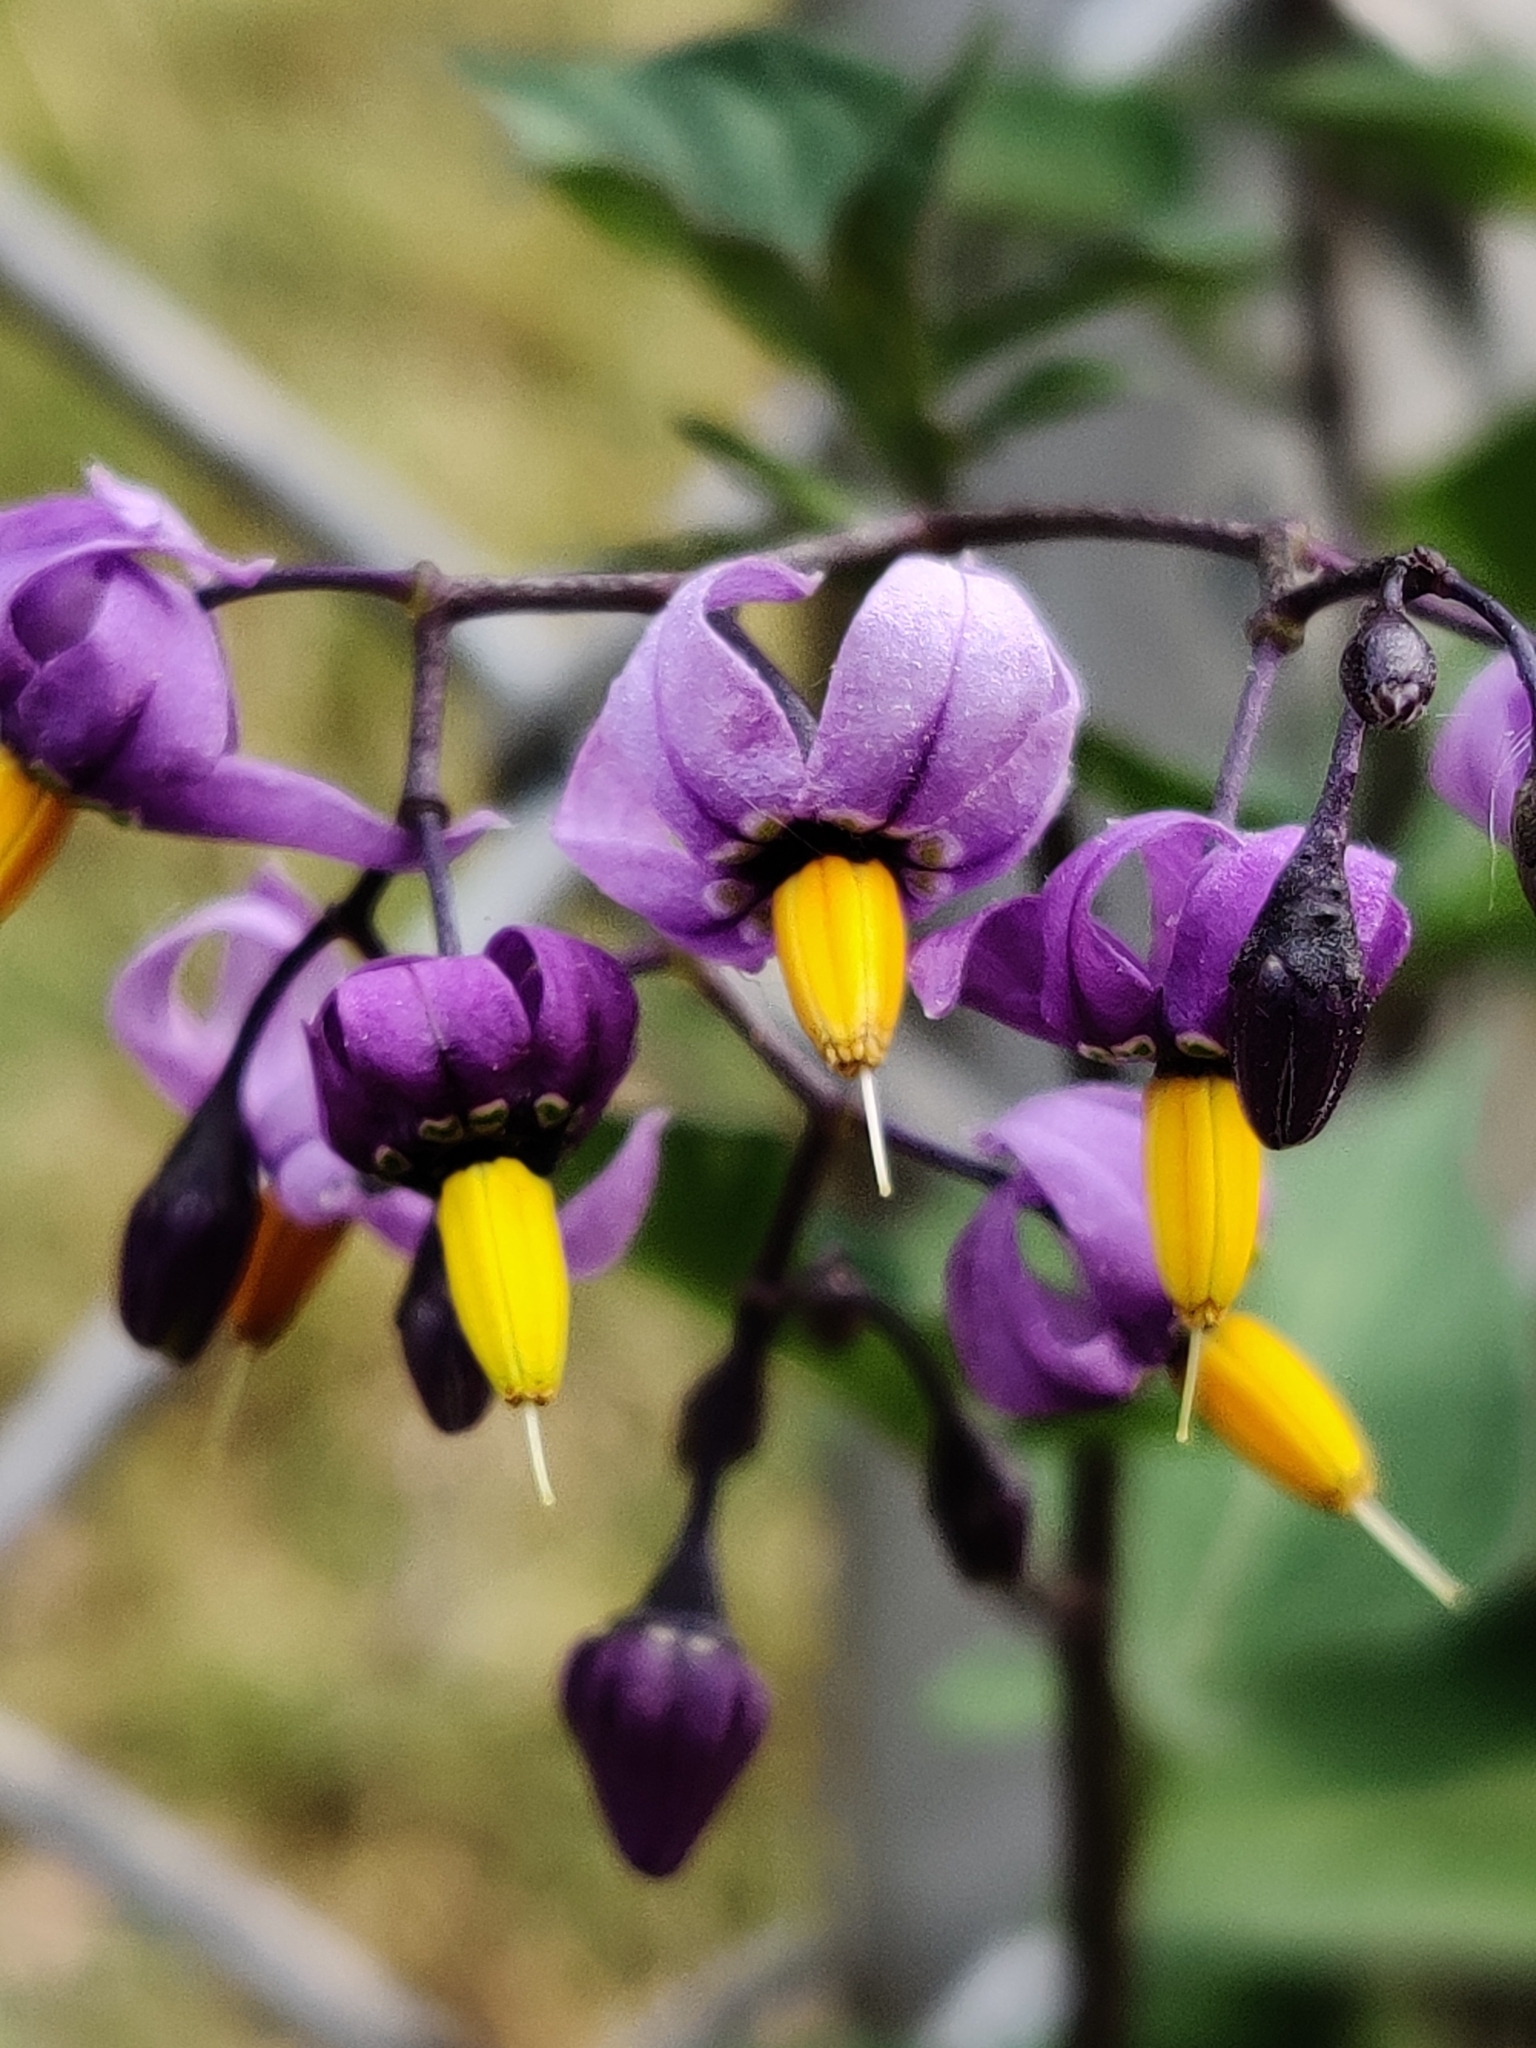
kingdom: Plantae
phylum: Tracheophyta
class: Magnoliopsida
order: Solanales
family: Solanaceae
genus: Solanum
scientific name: Solanum dulcamara
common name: Climbing nightshade
